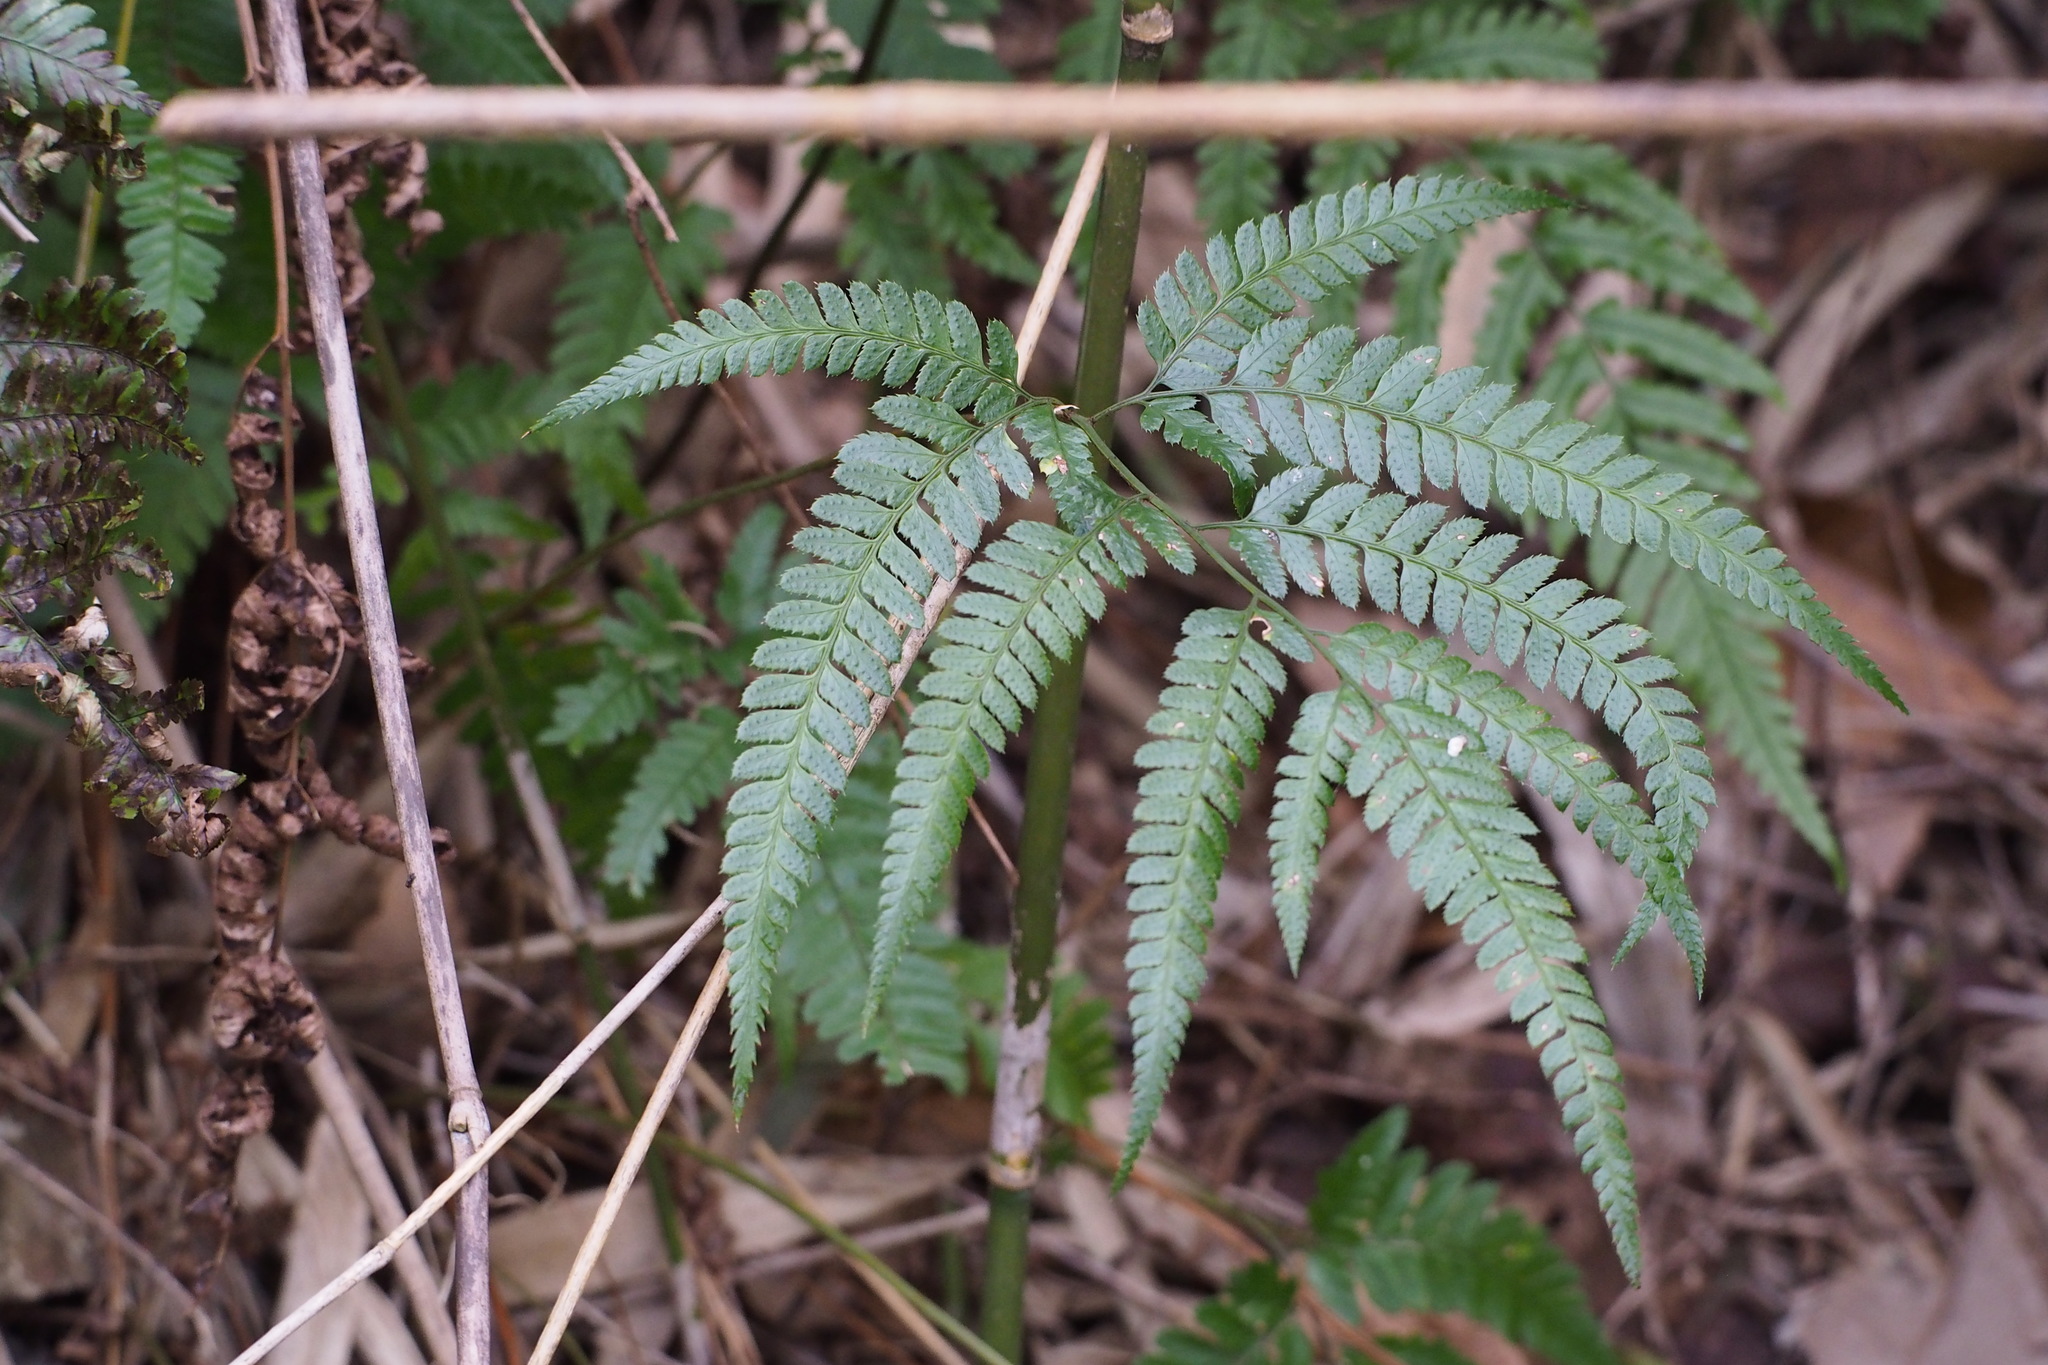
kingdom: Plantae
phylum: Tracheophyta
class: Polypodiopsida
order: Polypodiales
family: Dryopteridaceae
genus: Arachniodes
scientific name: Arachniodes simplicior
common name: Simpler hollyfern
